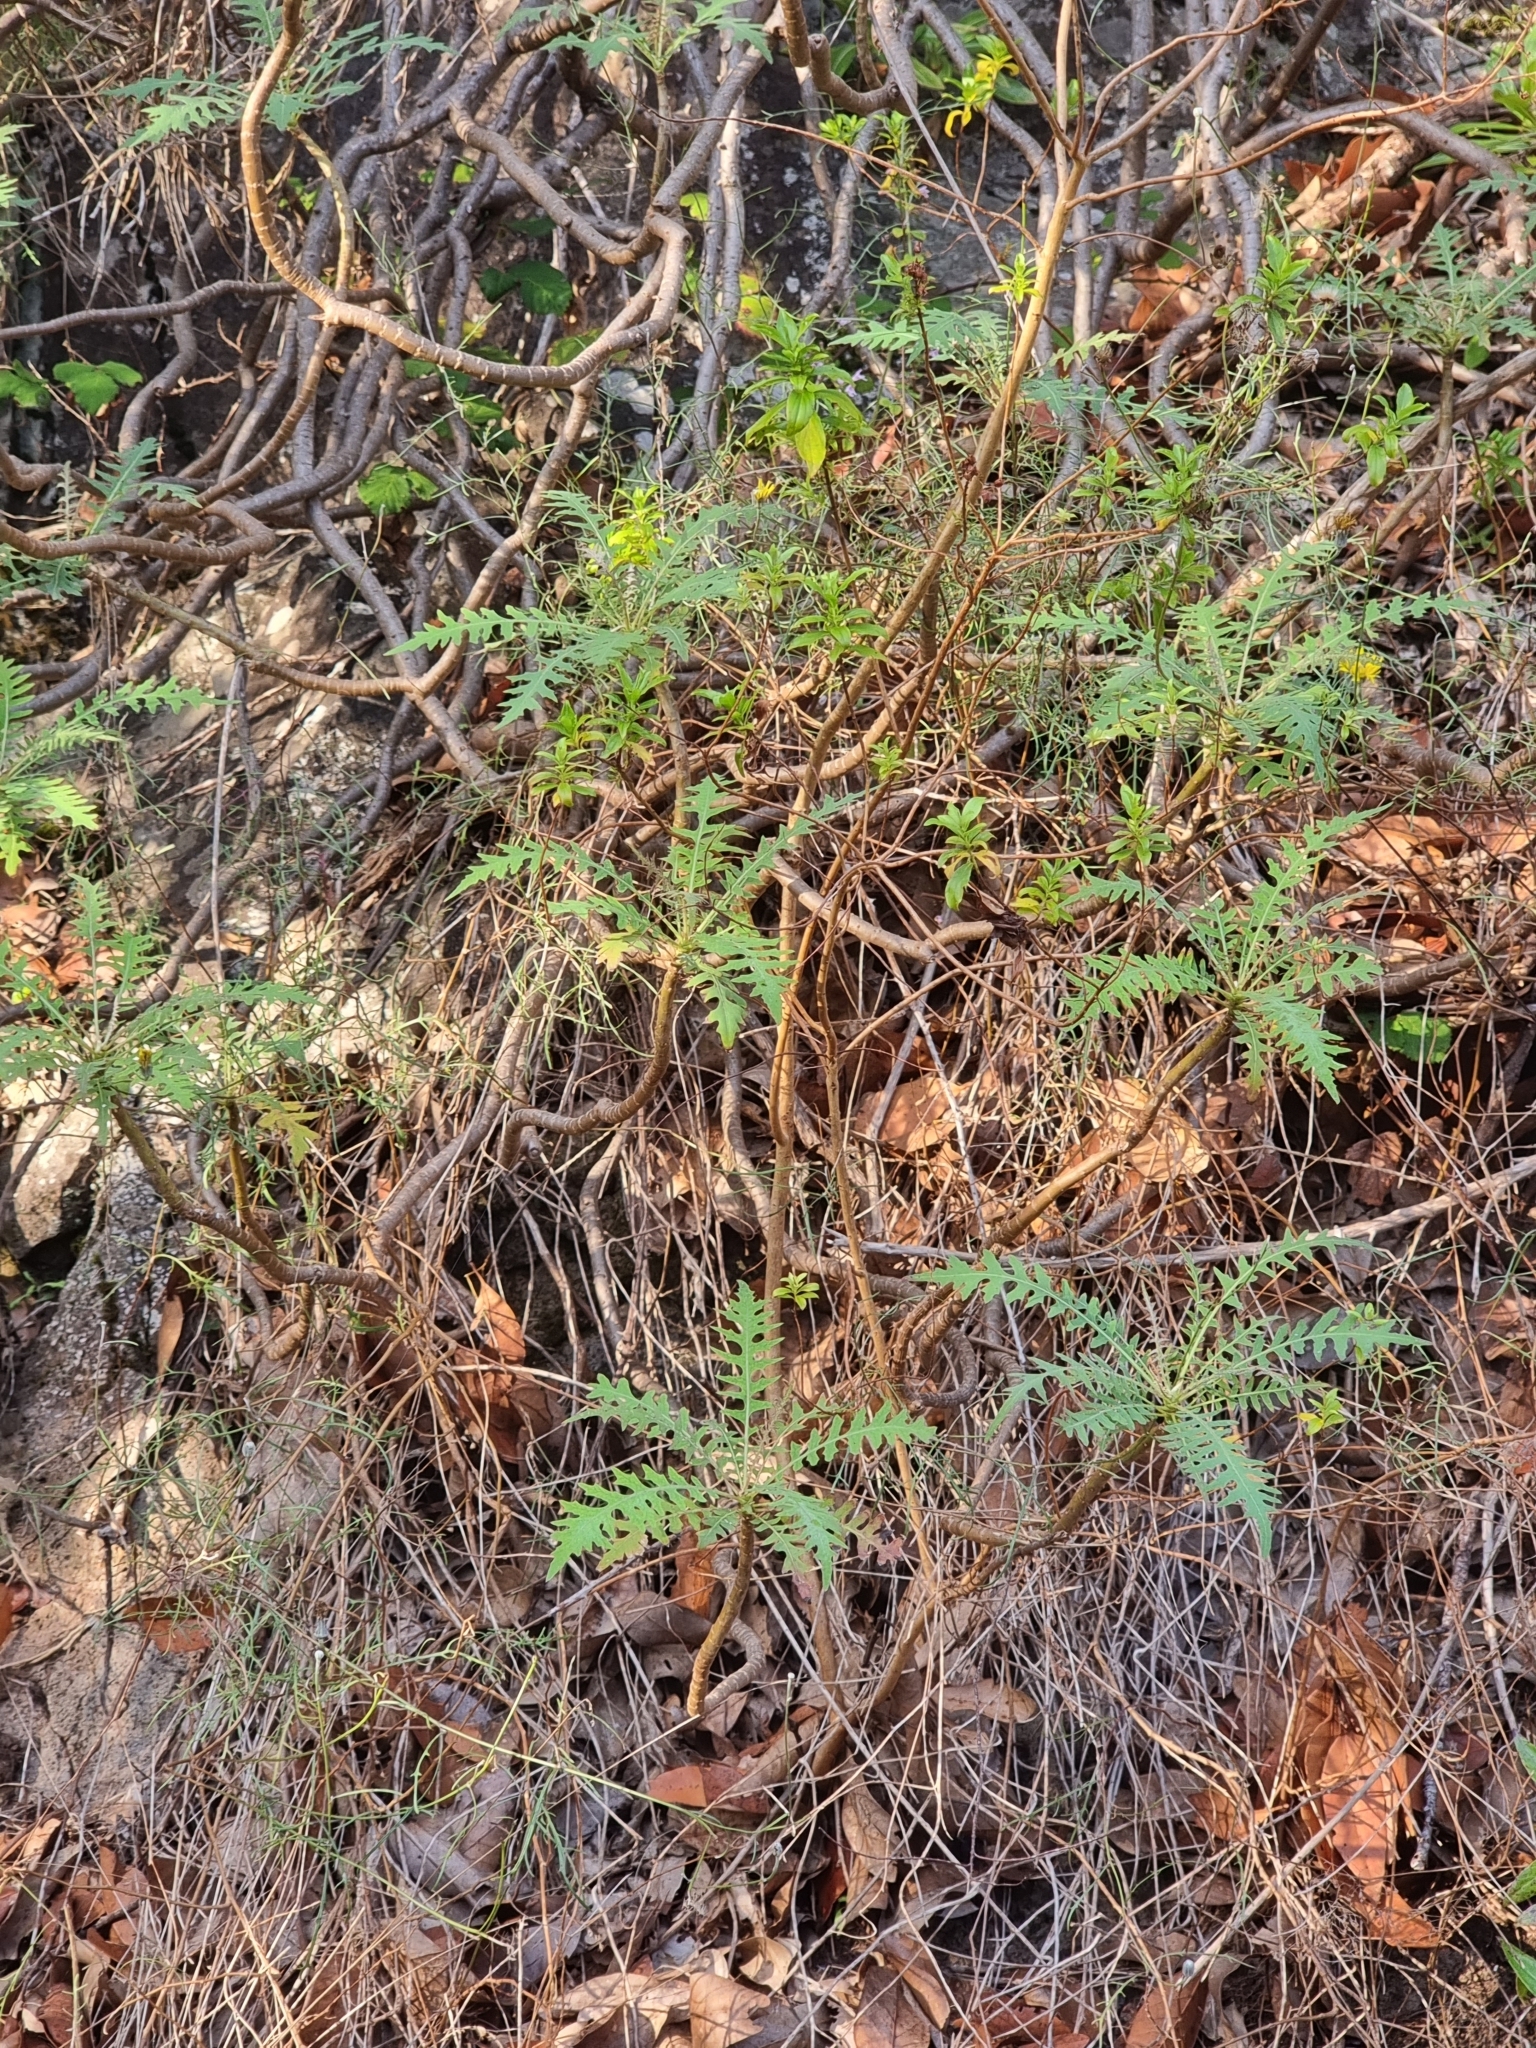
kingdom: Plantae
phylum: Tracheophyta
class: Magnoliopsida
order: Asterales
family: Asteraceae
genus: Sonchus
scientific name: Sonchus pinnatus
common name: Wing-leaved sow-thistle
